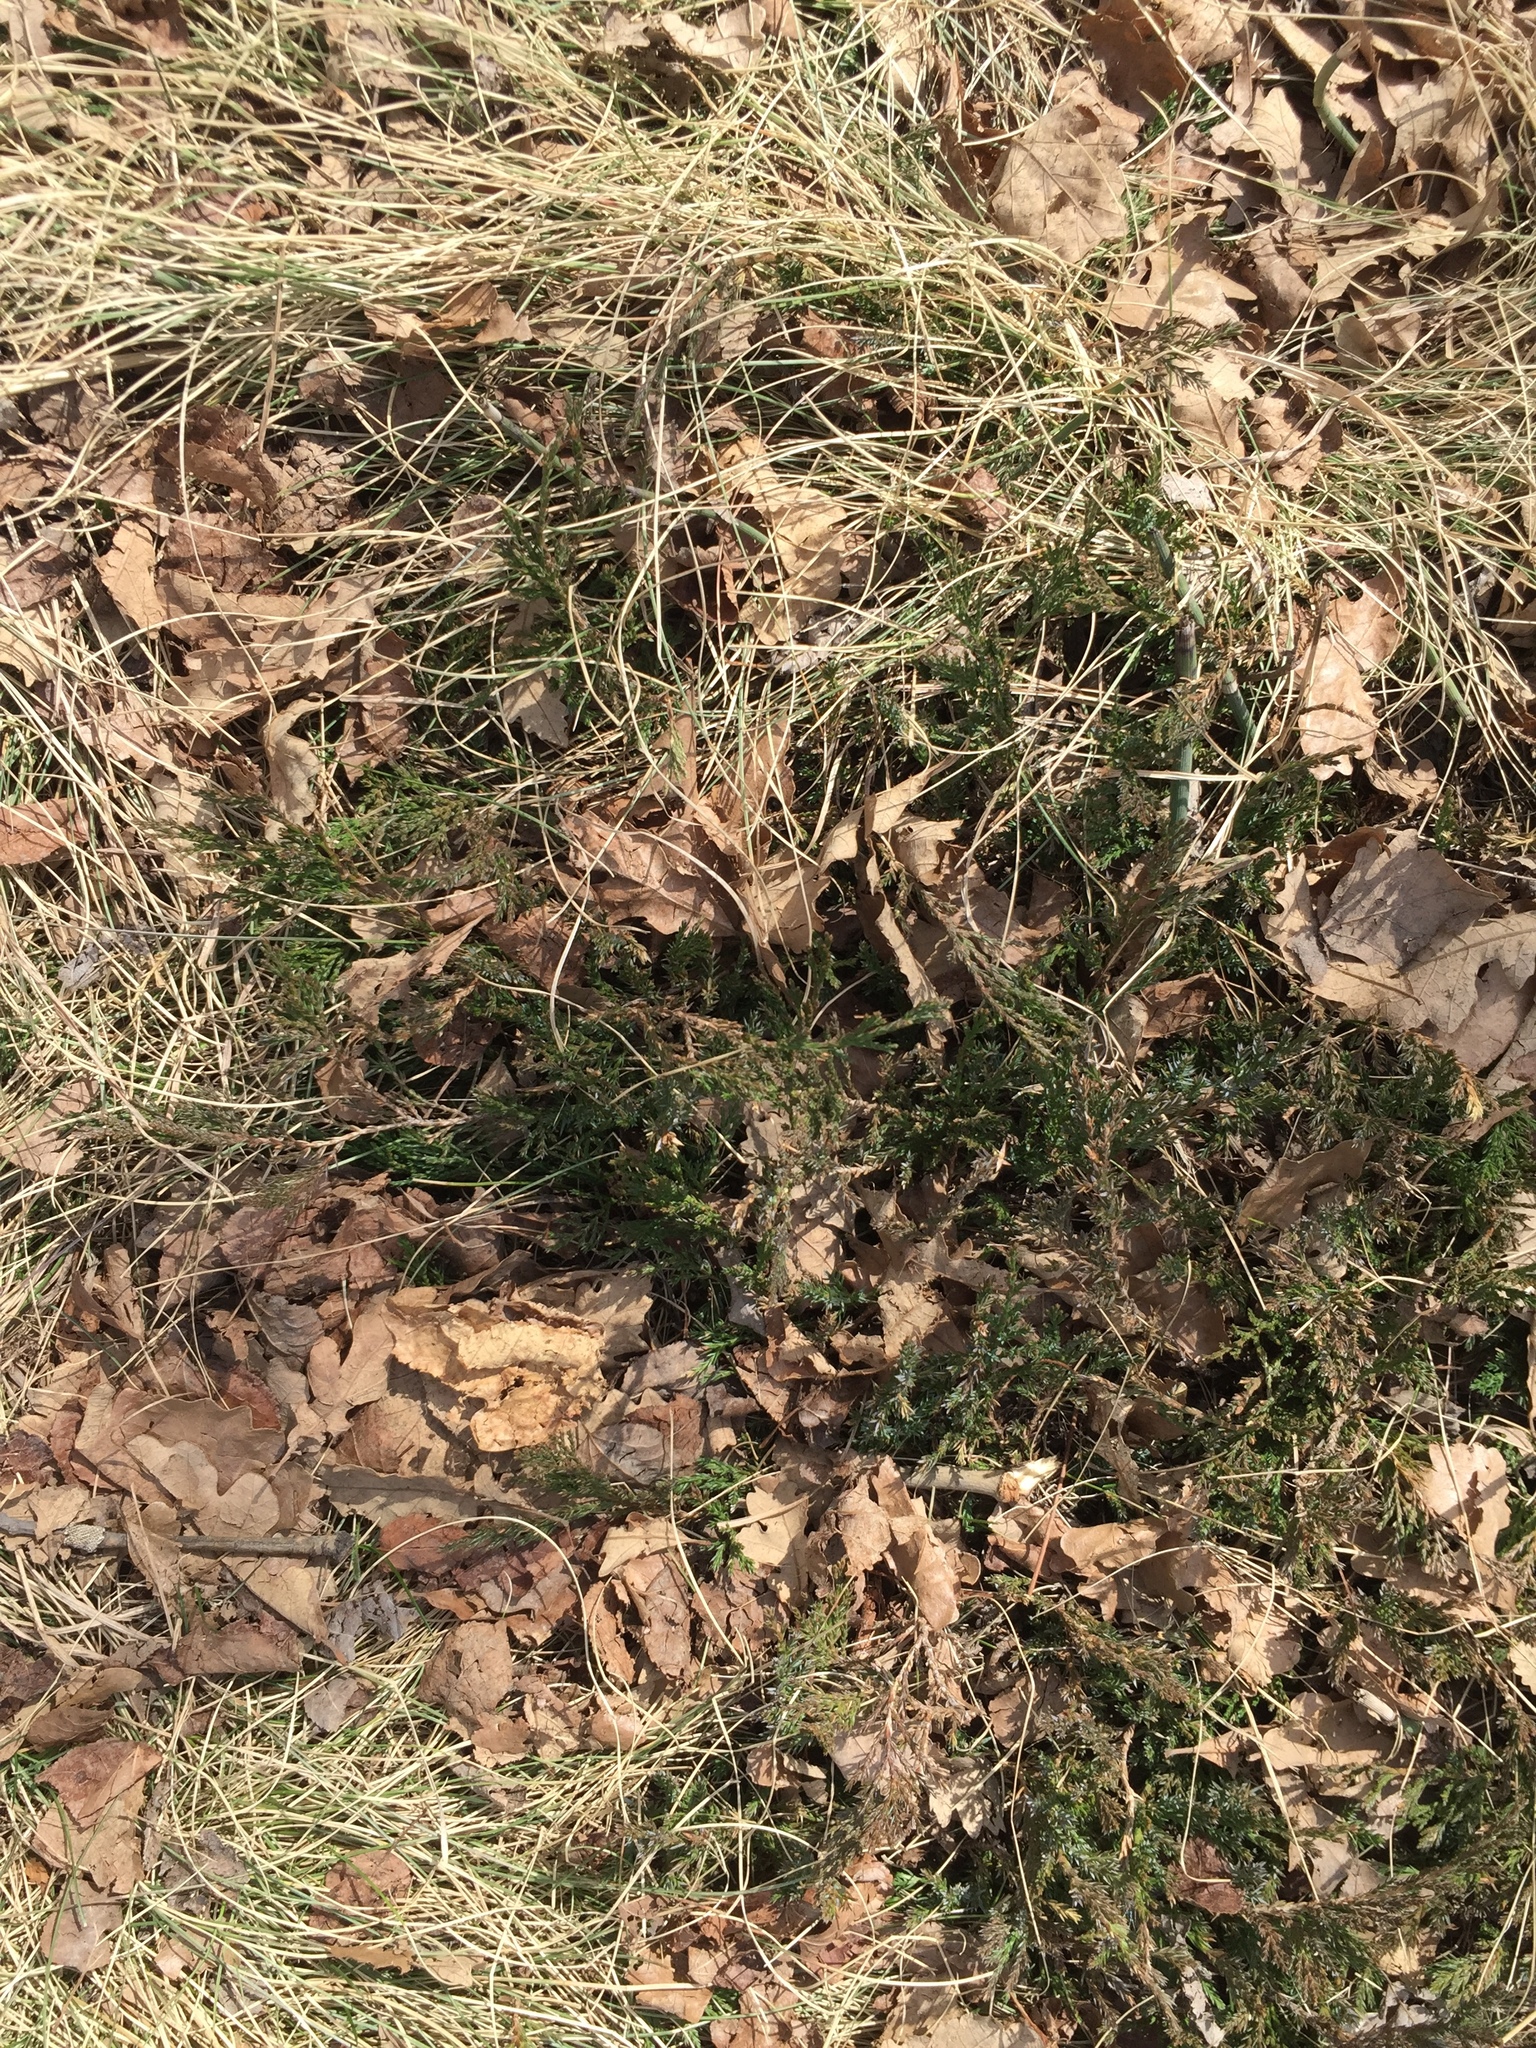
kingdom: Plantae
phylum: Tracheophyta
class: Pinopsida
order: Pinales
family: Cupressaceae
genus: Juniperus
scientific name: Juniperus horizontalis
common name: Creeping juniper
